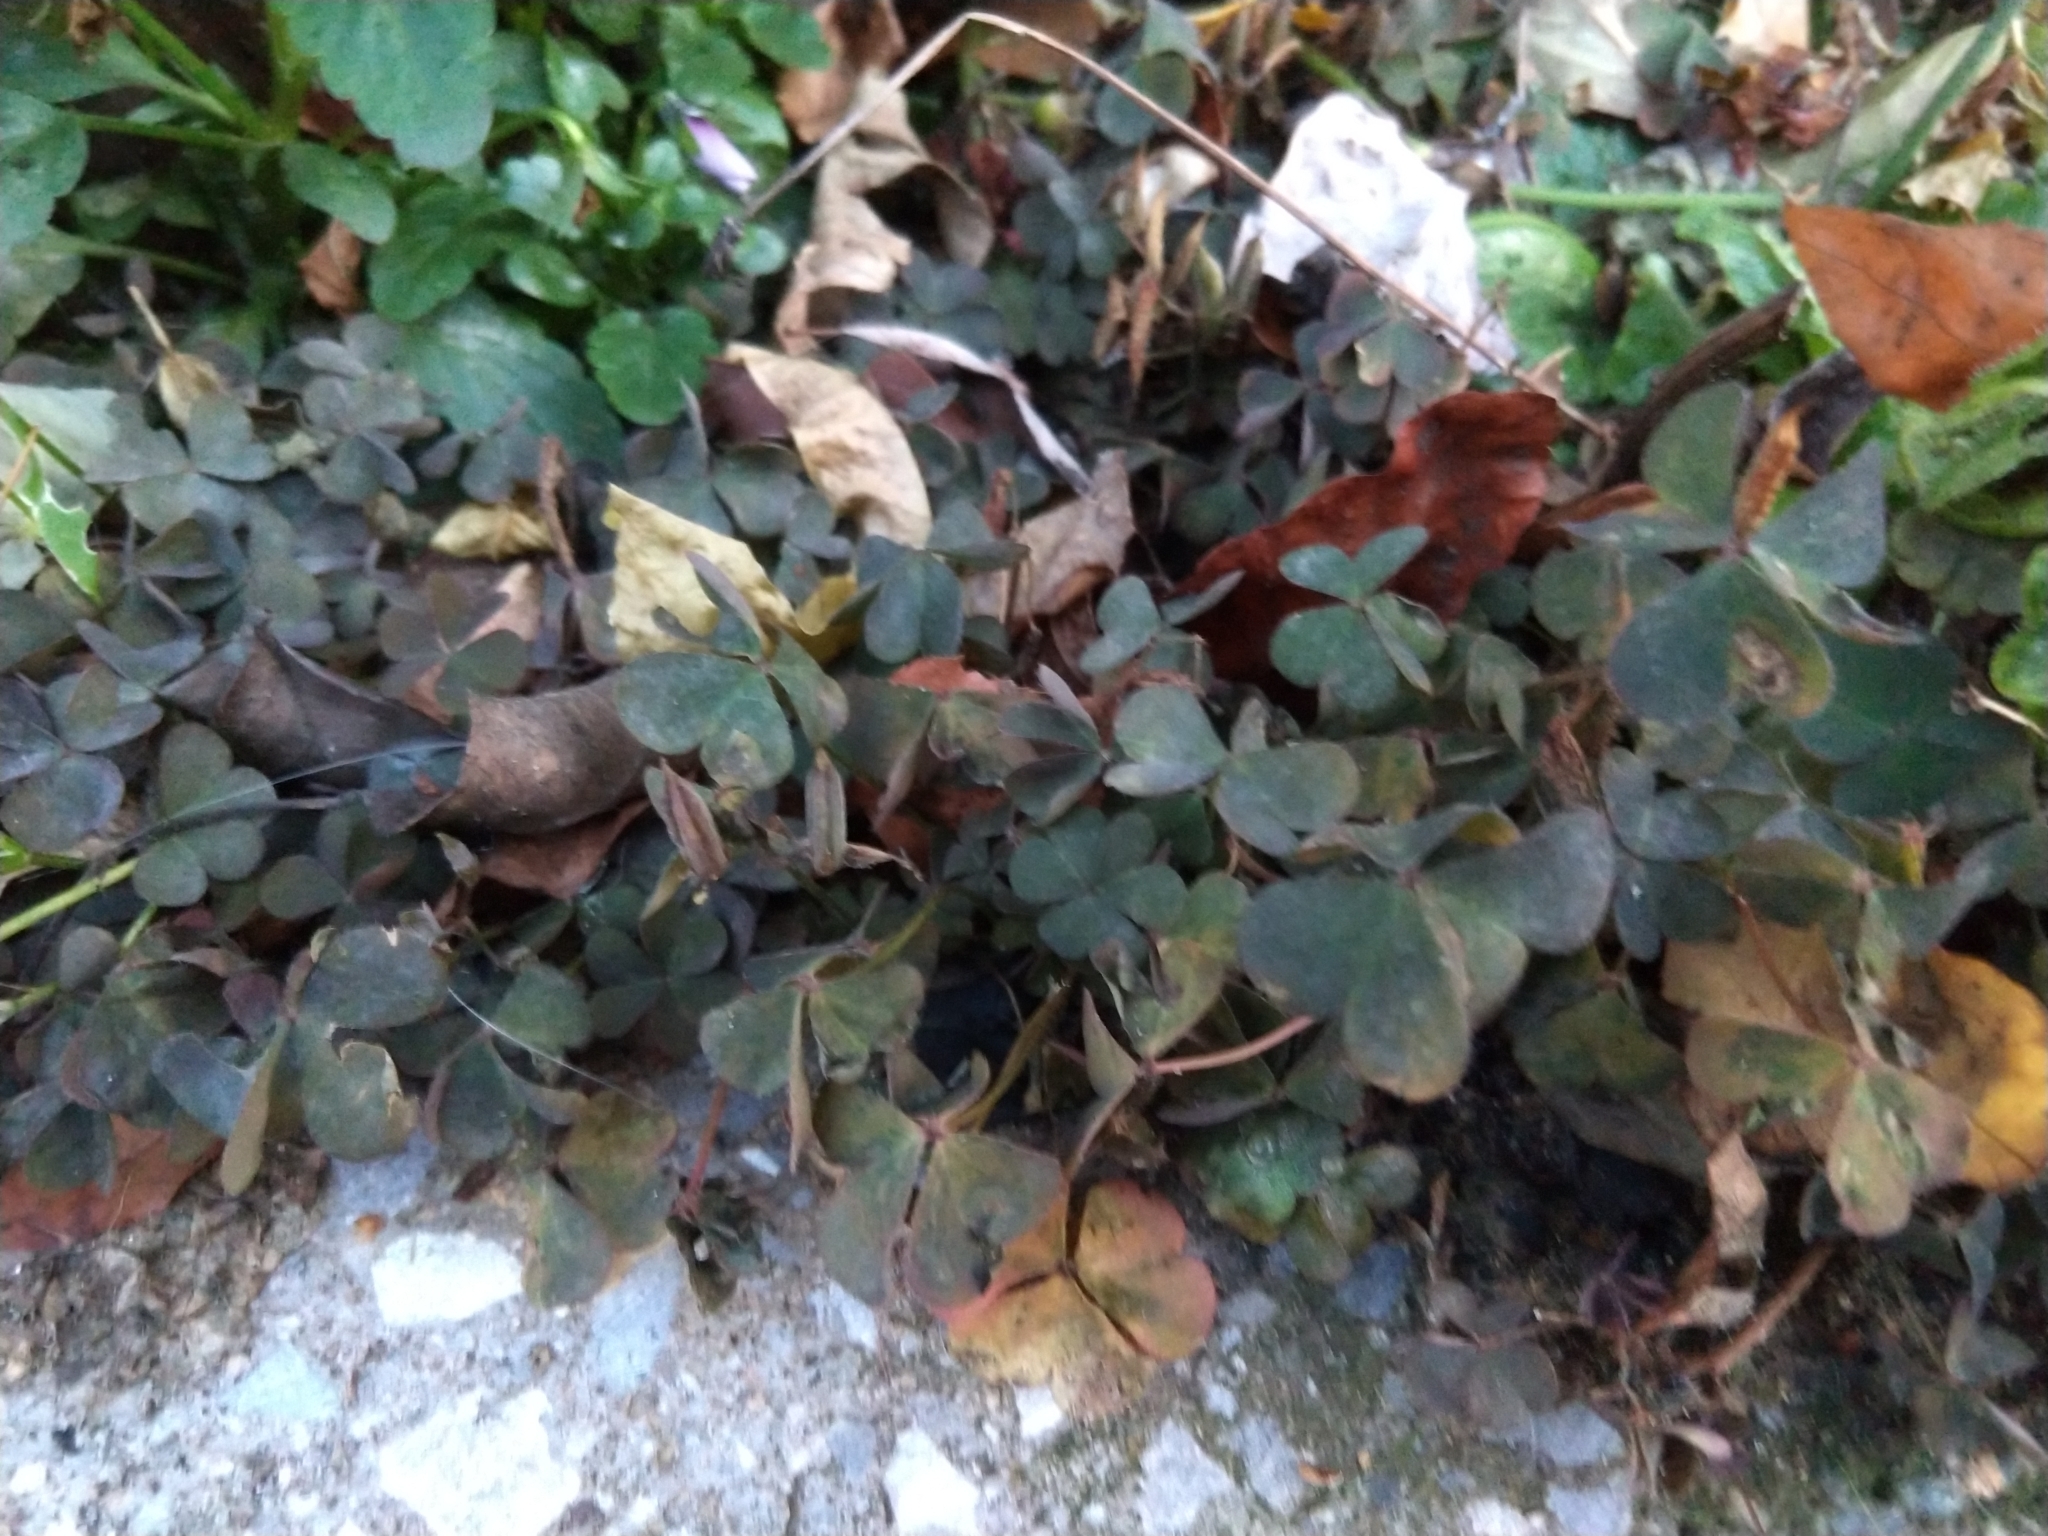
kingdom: Plantae
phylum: Tracheophyta
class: Magnoliopsida
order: Oxalidales
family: Oxalidaceae
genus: Oxalis
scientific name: Oxalis corniculata
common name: Procumbent yellow-sorrel
